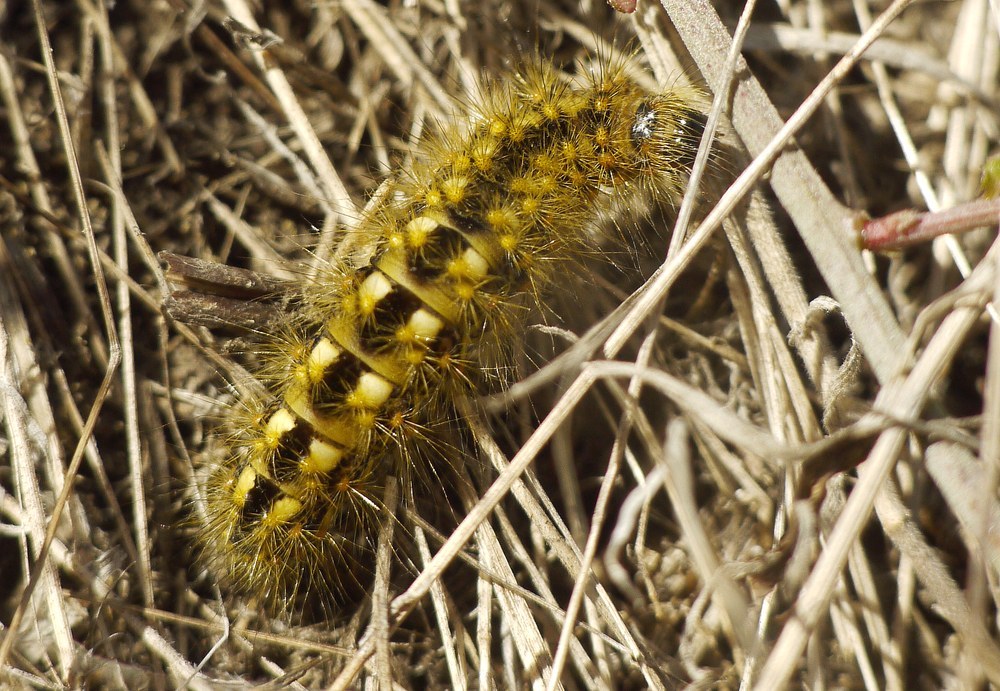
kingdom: Animalia
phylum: Arthropoda
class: Insecta
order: Lepidoptera
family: Noctuidae
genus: Acronicta
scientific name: Acronicta euphorbiae
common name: Sweet gale moth
